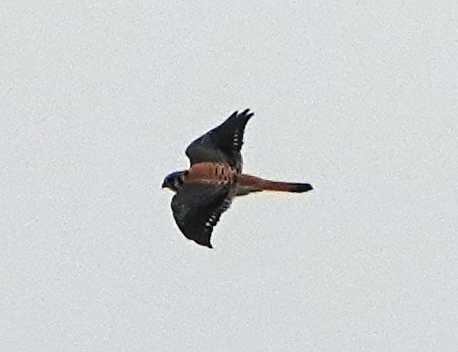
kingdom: Animalia
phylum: Chordata
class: Aves
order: Falconiformes
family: Falconidae
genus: Falco
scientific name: Falco sparverius
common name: American kestrel
